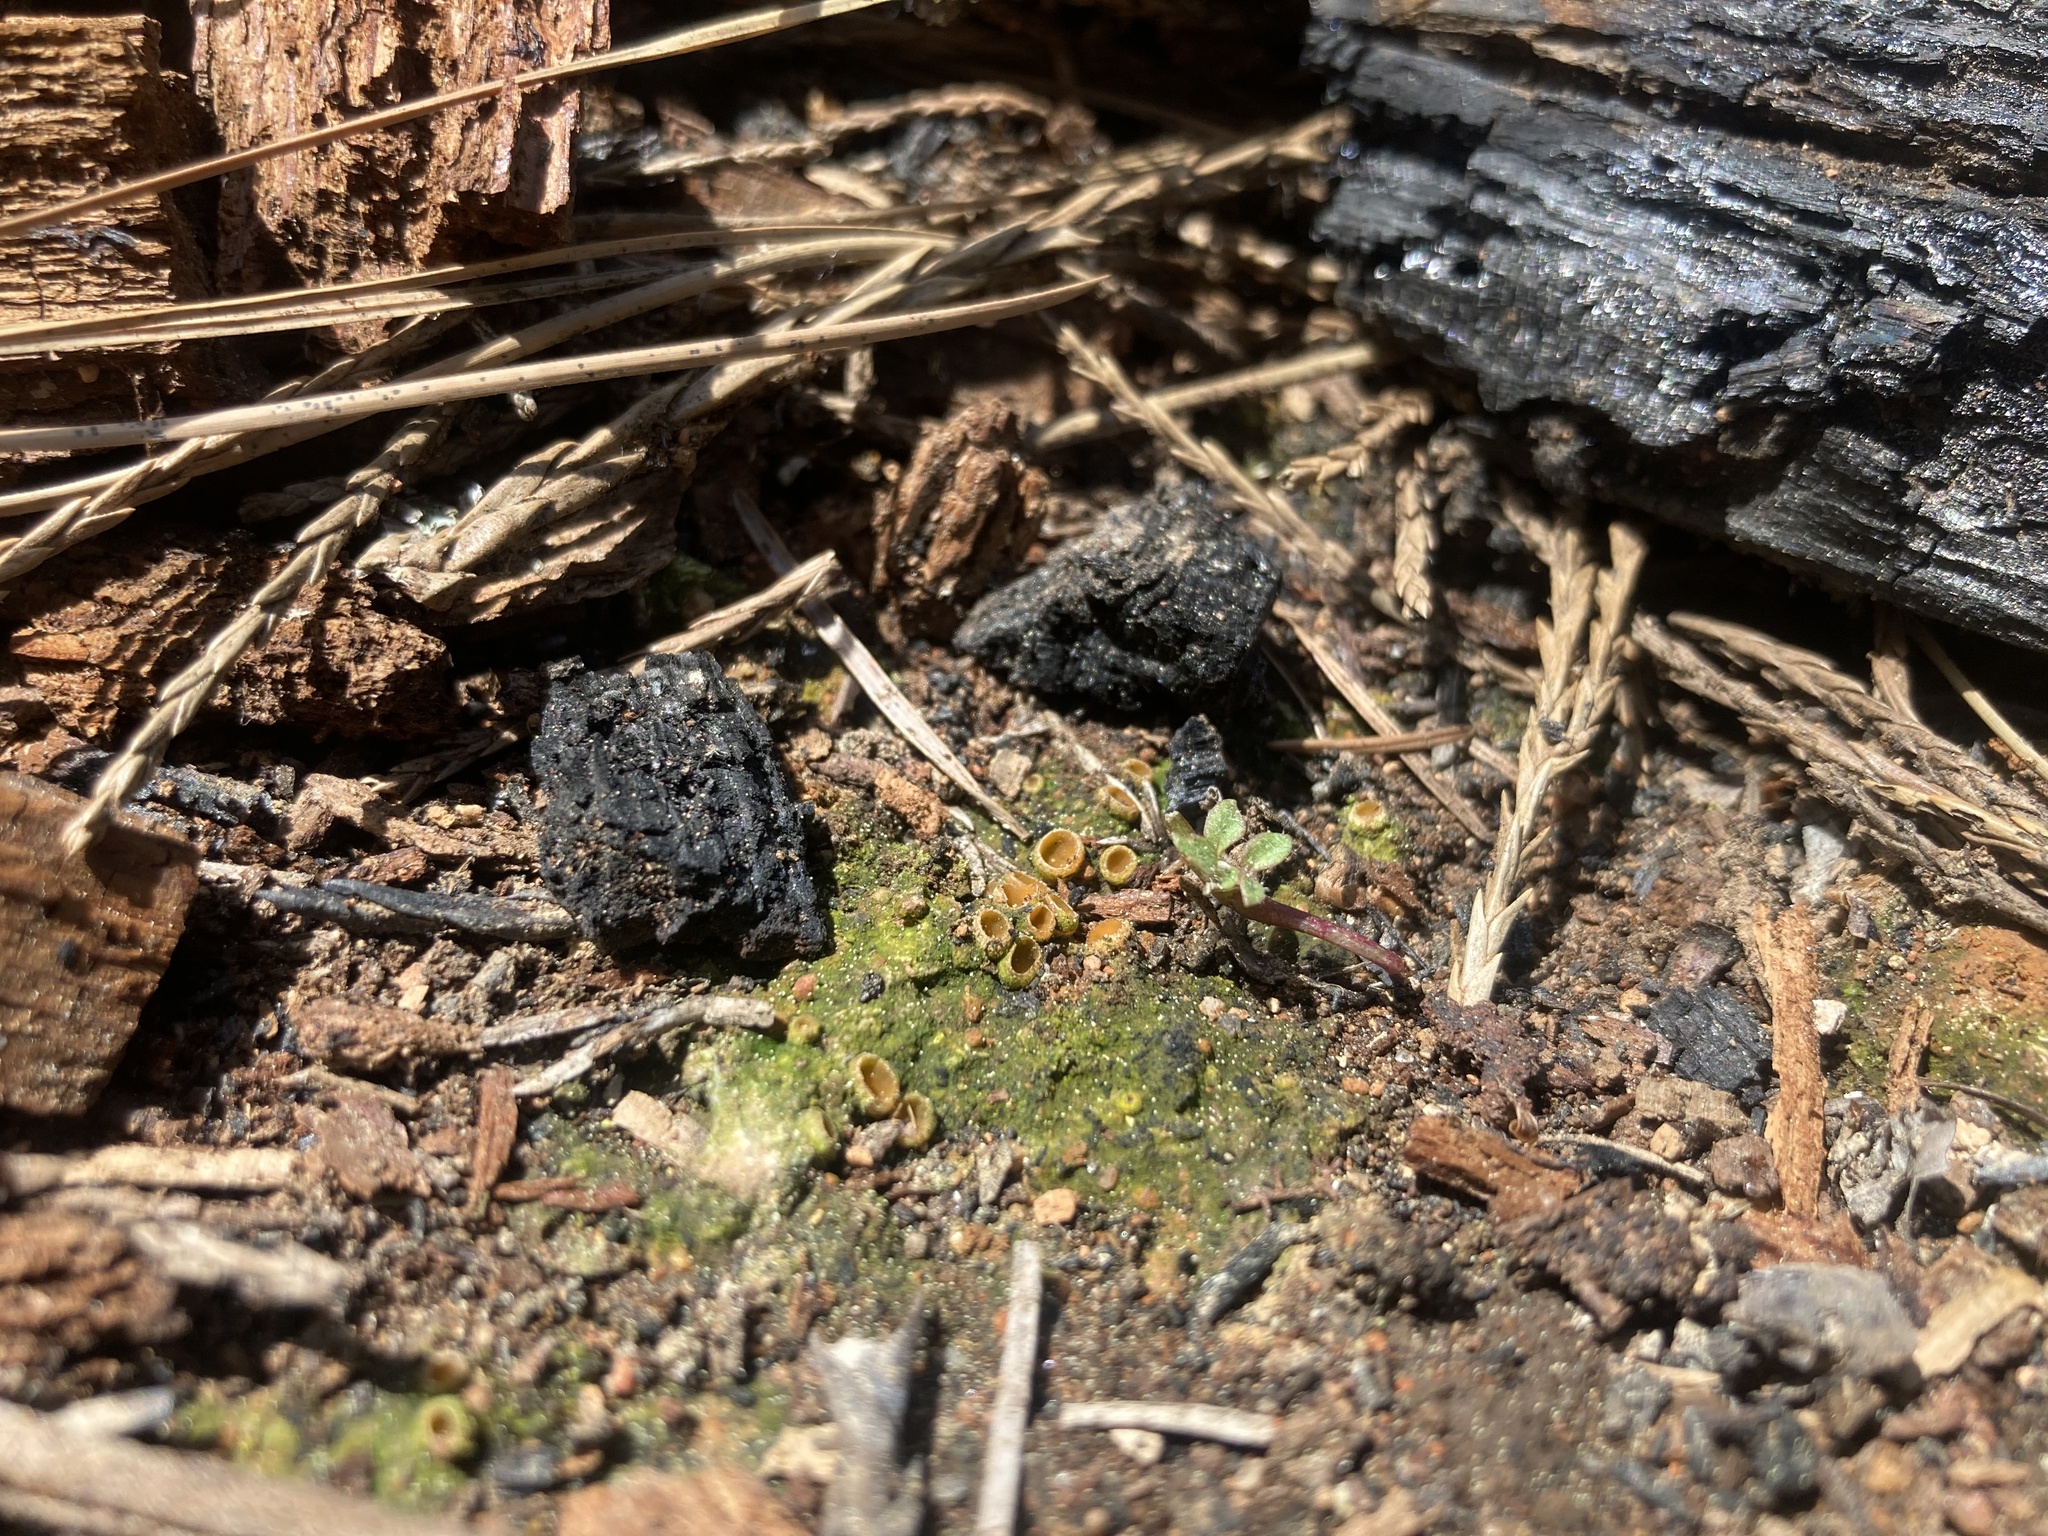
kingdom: Fungi
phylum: Ascomycota
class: Pezizomycetes
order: Pezizales
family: Pyronemataceae
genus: Geopyxis
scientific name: Geopyxis carbonaria
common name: Stalked bonfire cup
